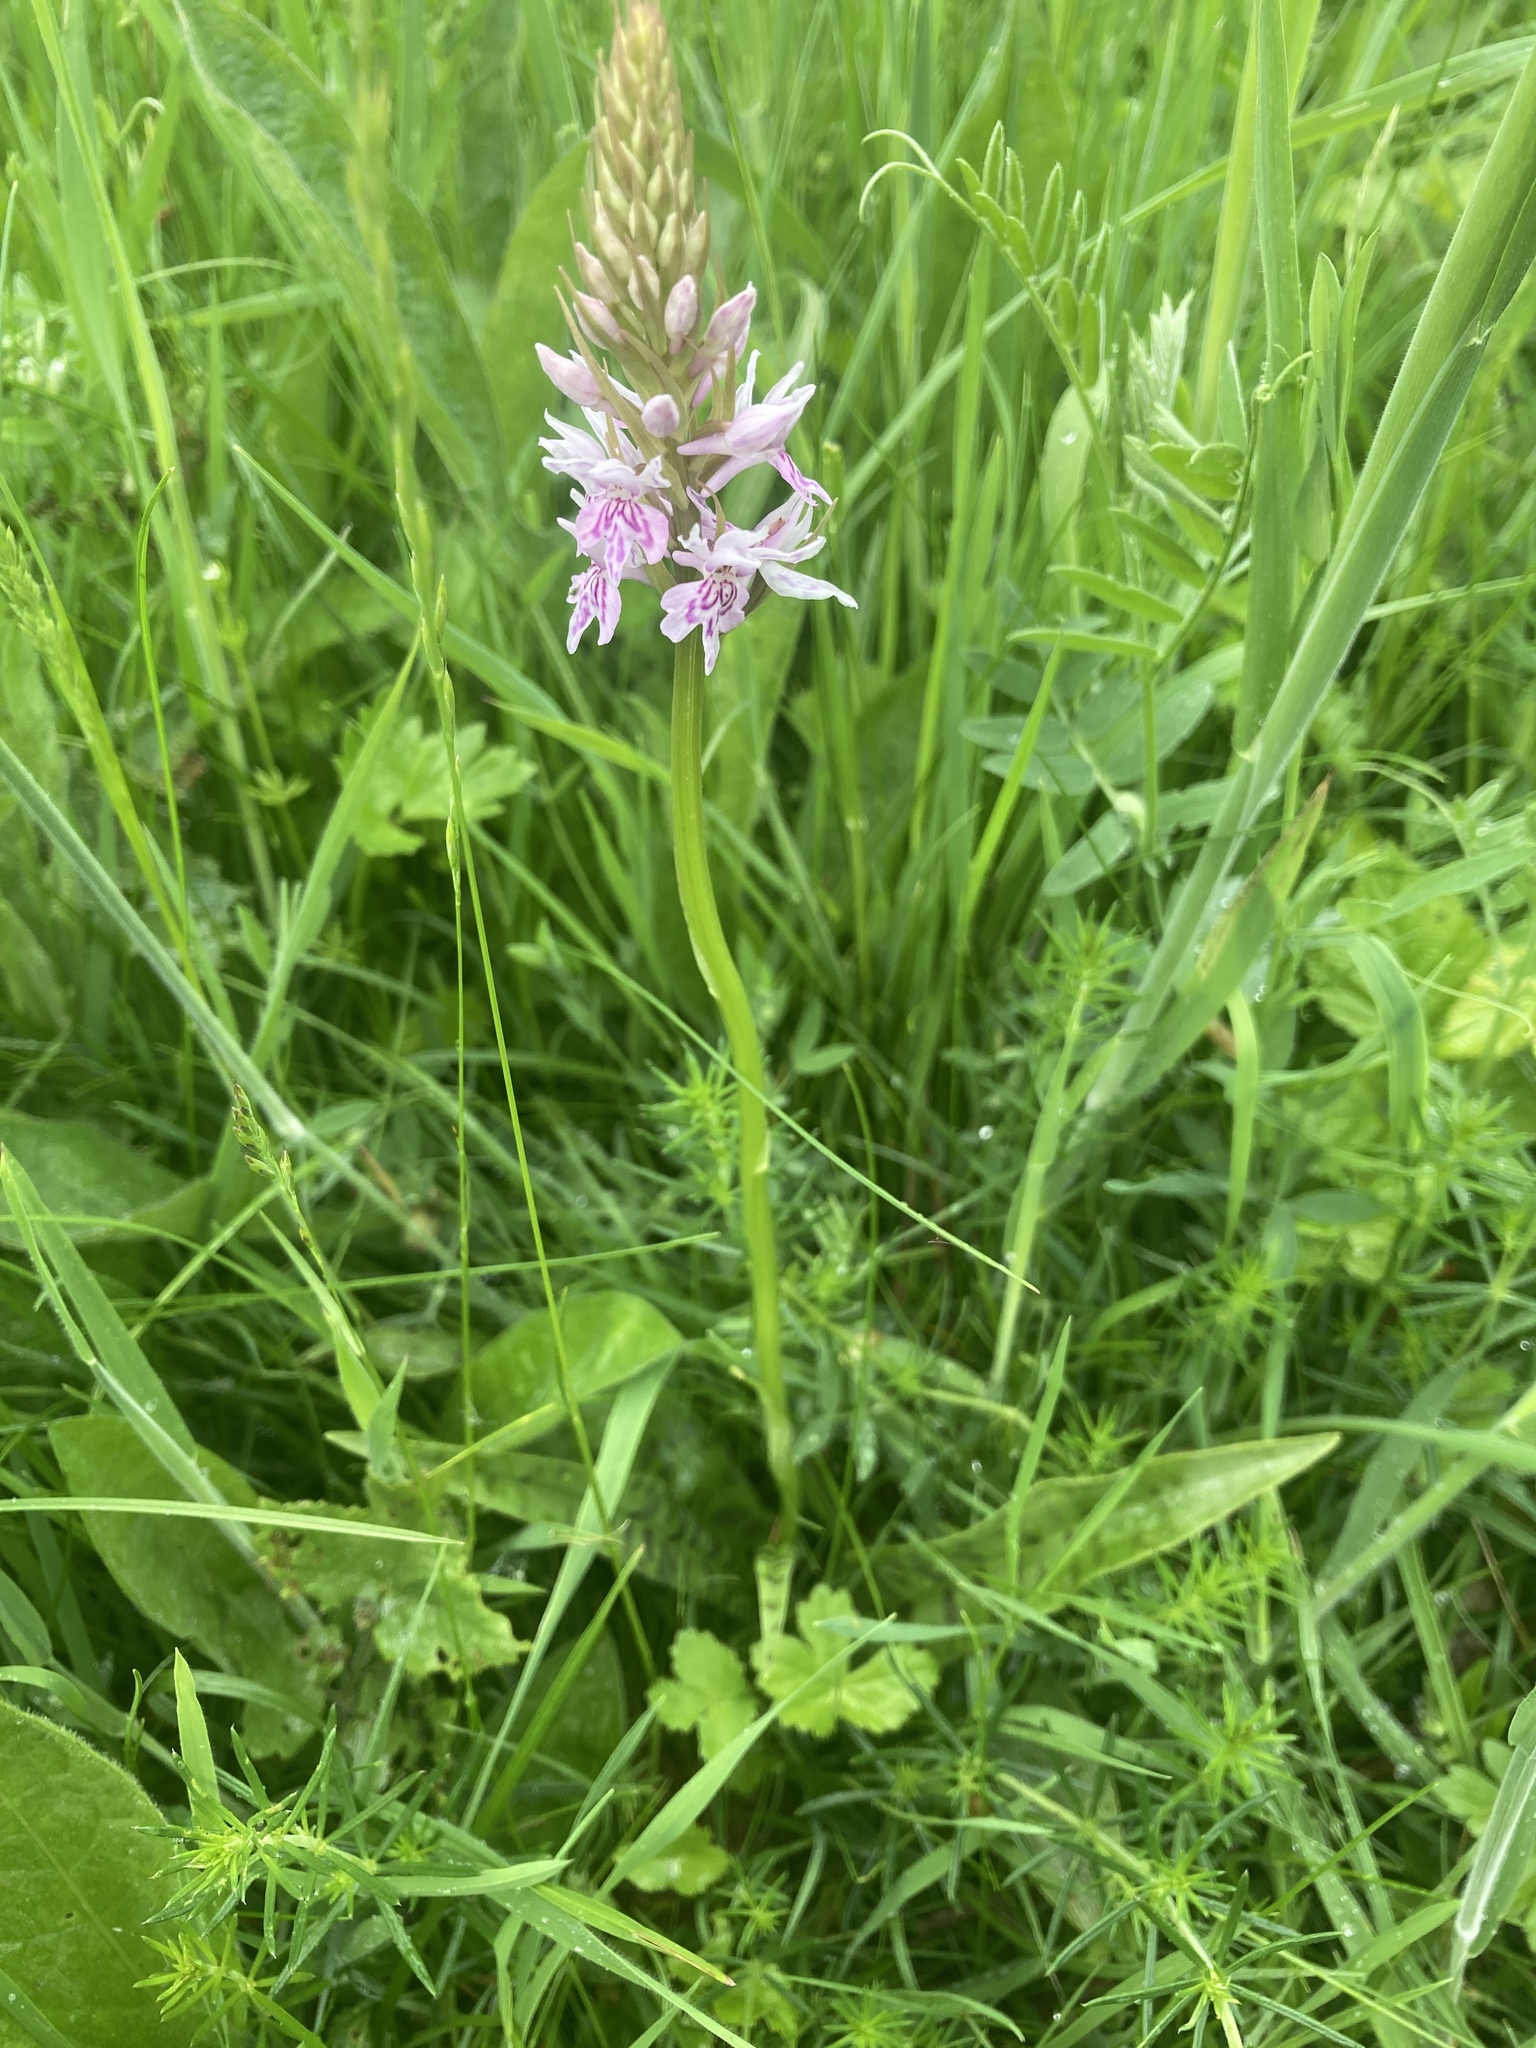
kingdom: Plantae
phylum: Tracheophyta
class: Liliopsida
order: Asparagales
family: Orchidaceae
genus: Dactylorhiza
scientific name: Dactylorhiza maculata
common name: Heath spotted-orchid
